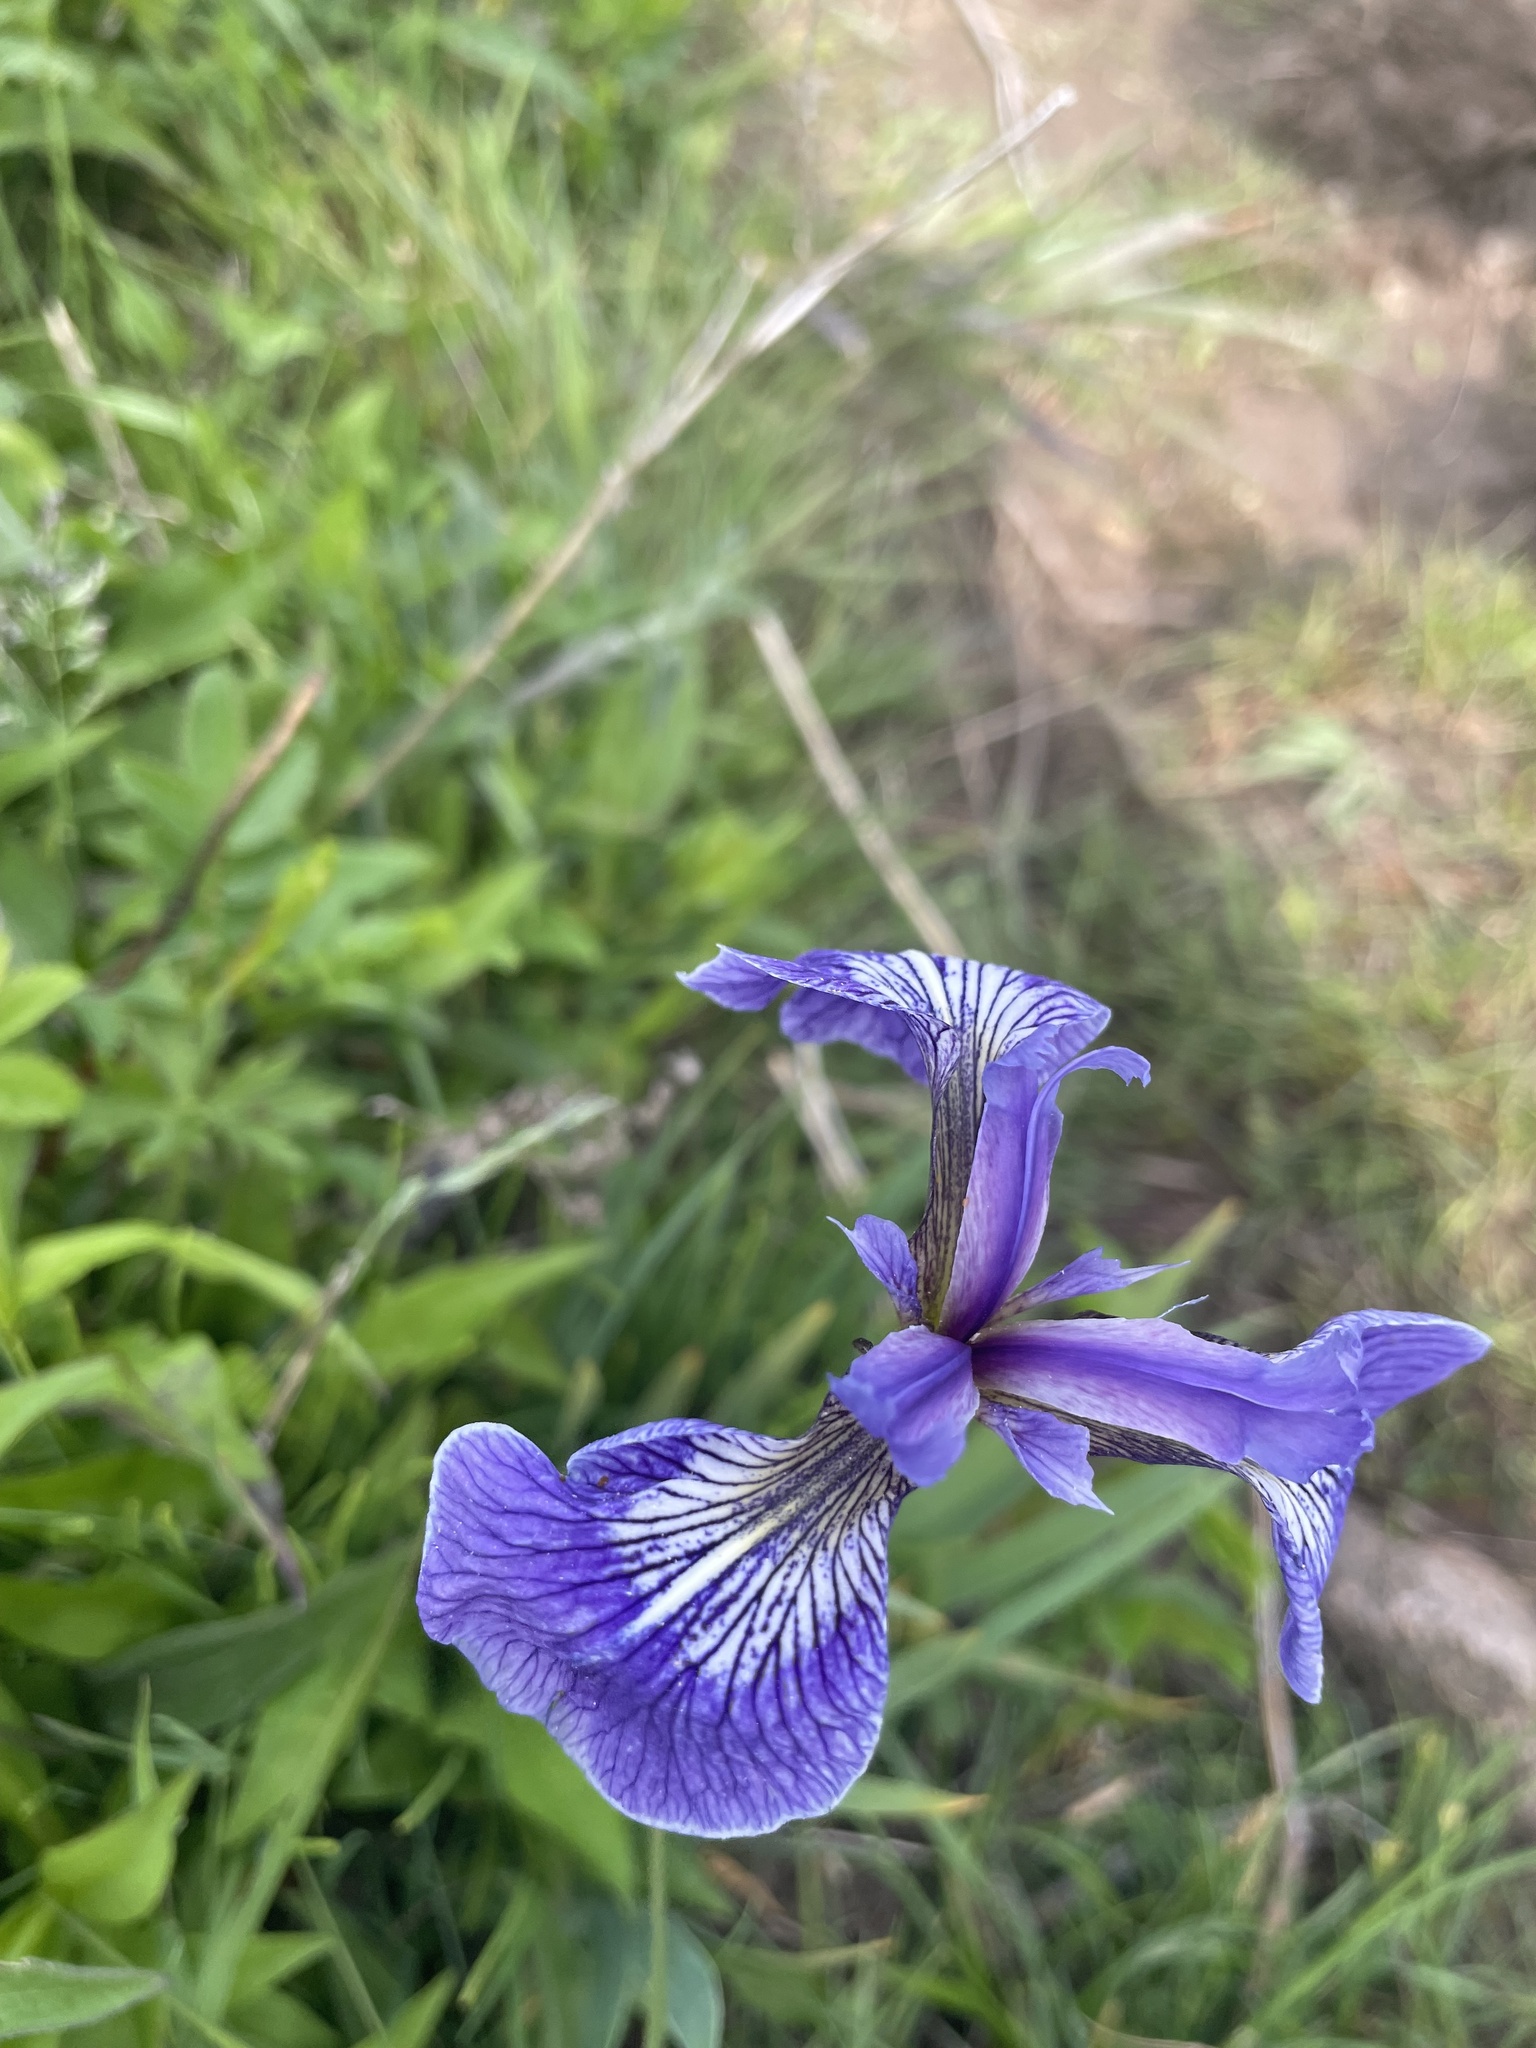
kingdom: Plantae
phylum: Tracheophyta
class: Liliopsida
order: Asparagales
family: Iridaceae
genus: Iris
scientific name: Iris hookeri
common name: Canada beach-head iris
